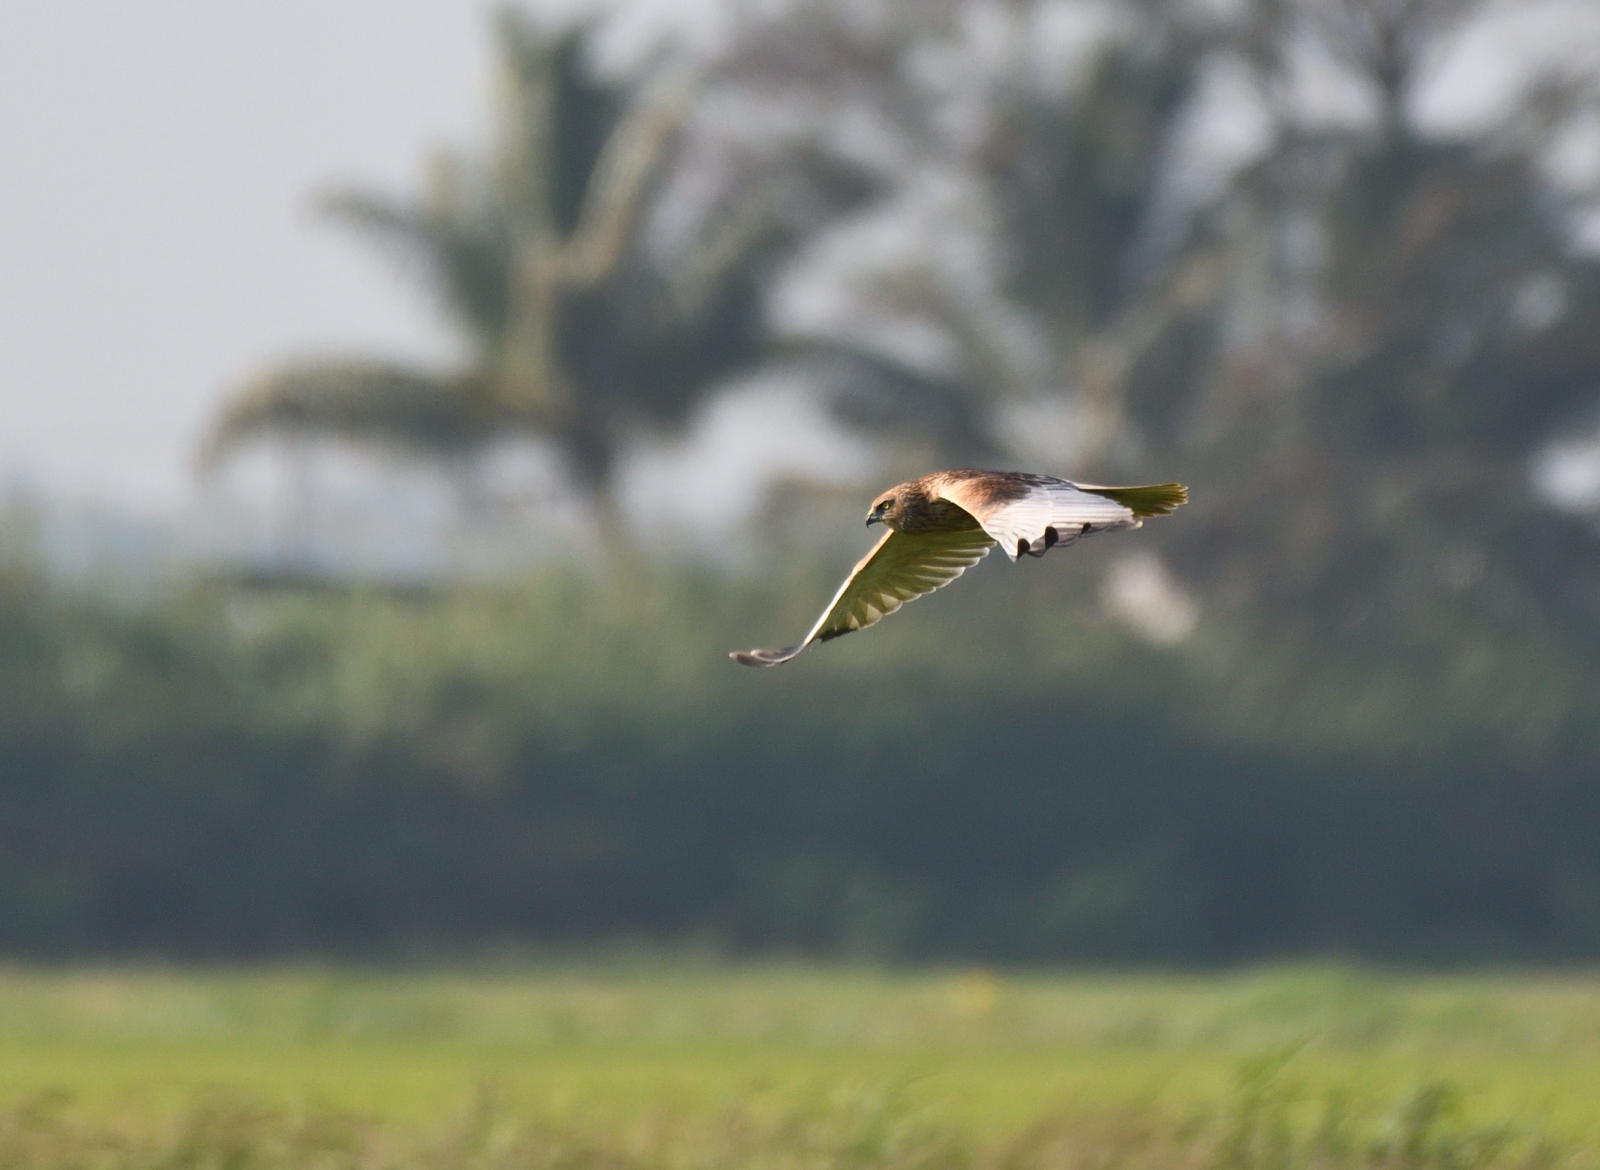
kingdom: Animalia
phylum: Chordata
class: Aves
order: Accipitriformes
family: Accipitridae
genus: Circus
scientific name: Circus aeruginosus
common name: Western marsh harrier
